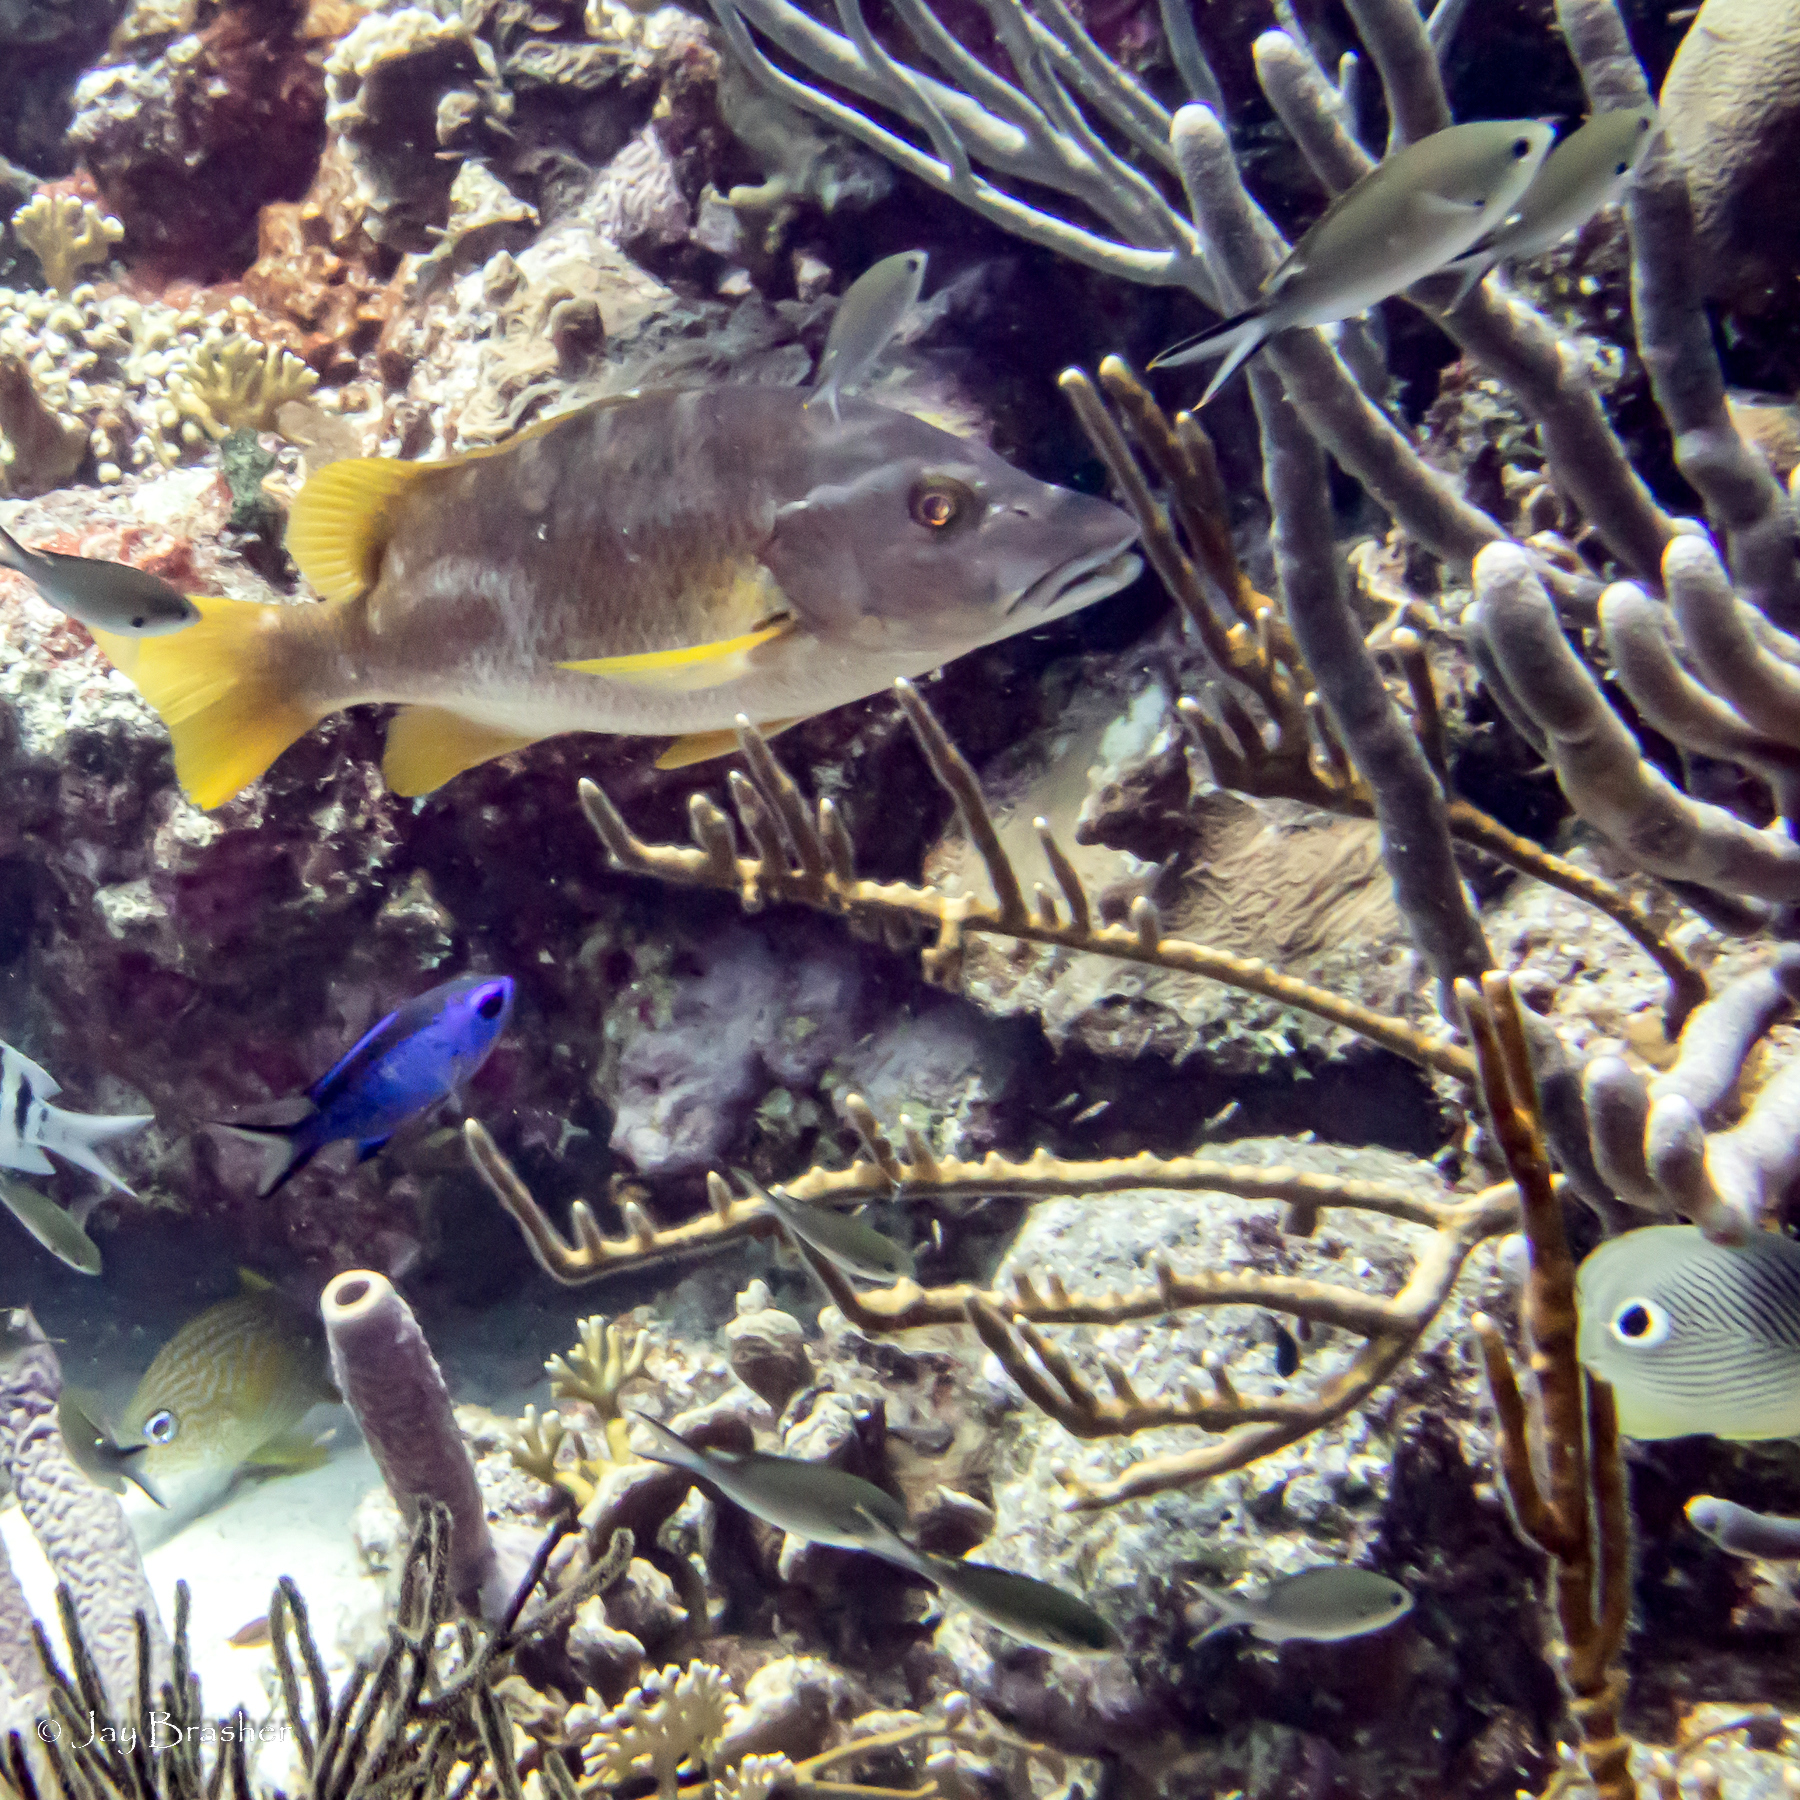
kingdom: Animalia
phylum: Chordata
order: Perciformes
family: Haemulidae
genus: Haemulon
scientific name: Haemulon flavolineatum
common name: French grunt
